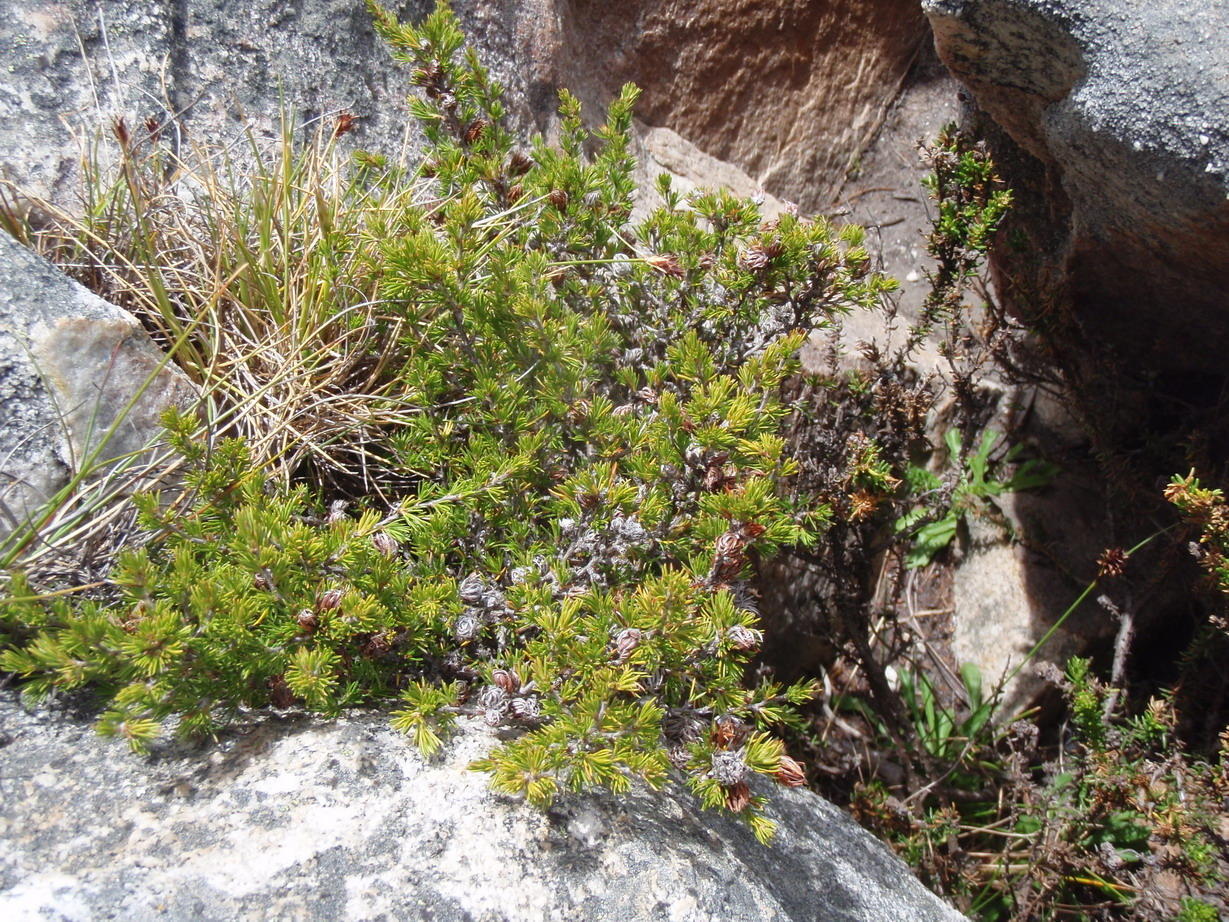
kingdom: Plantae
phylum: Tracheophyta
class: Magnoliopsida
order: Rosales
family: Rosaceae
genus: Cliffortia
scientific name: Cliffortia tuberculata
